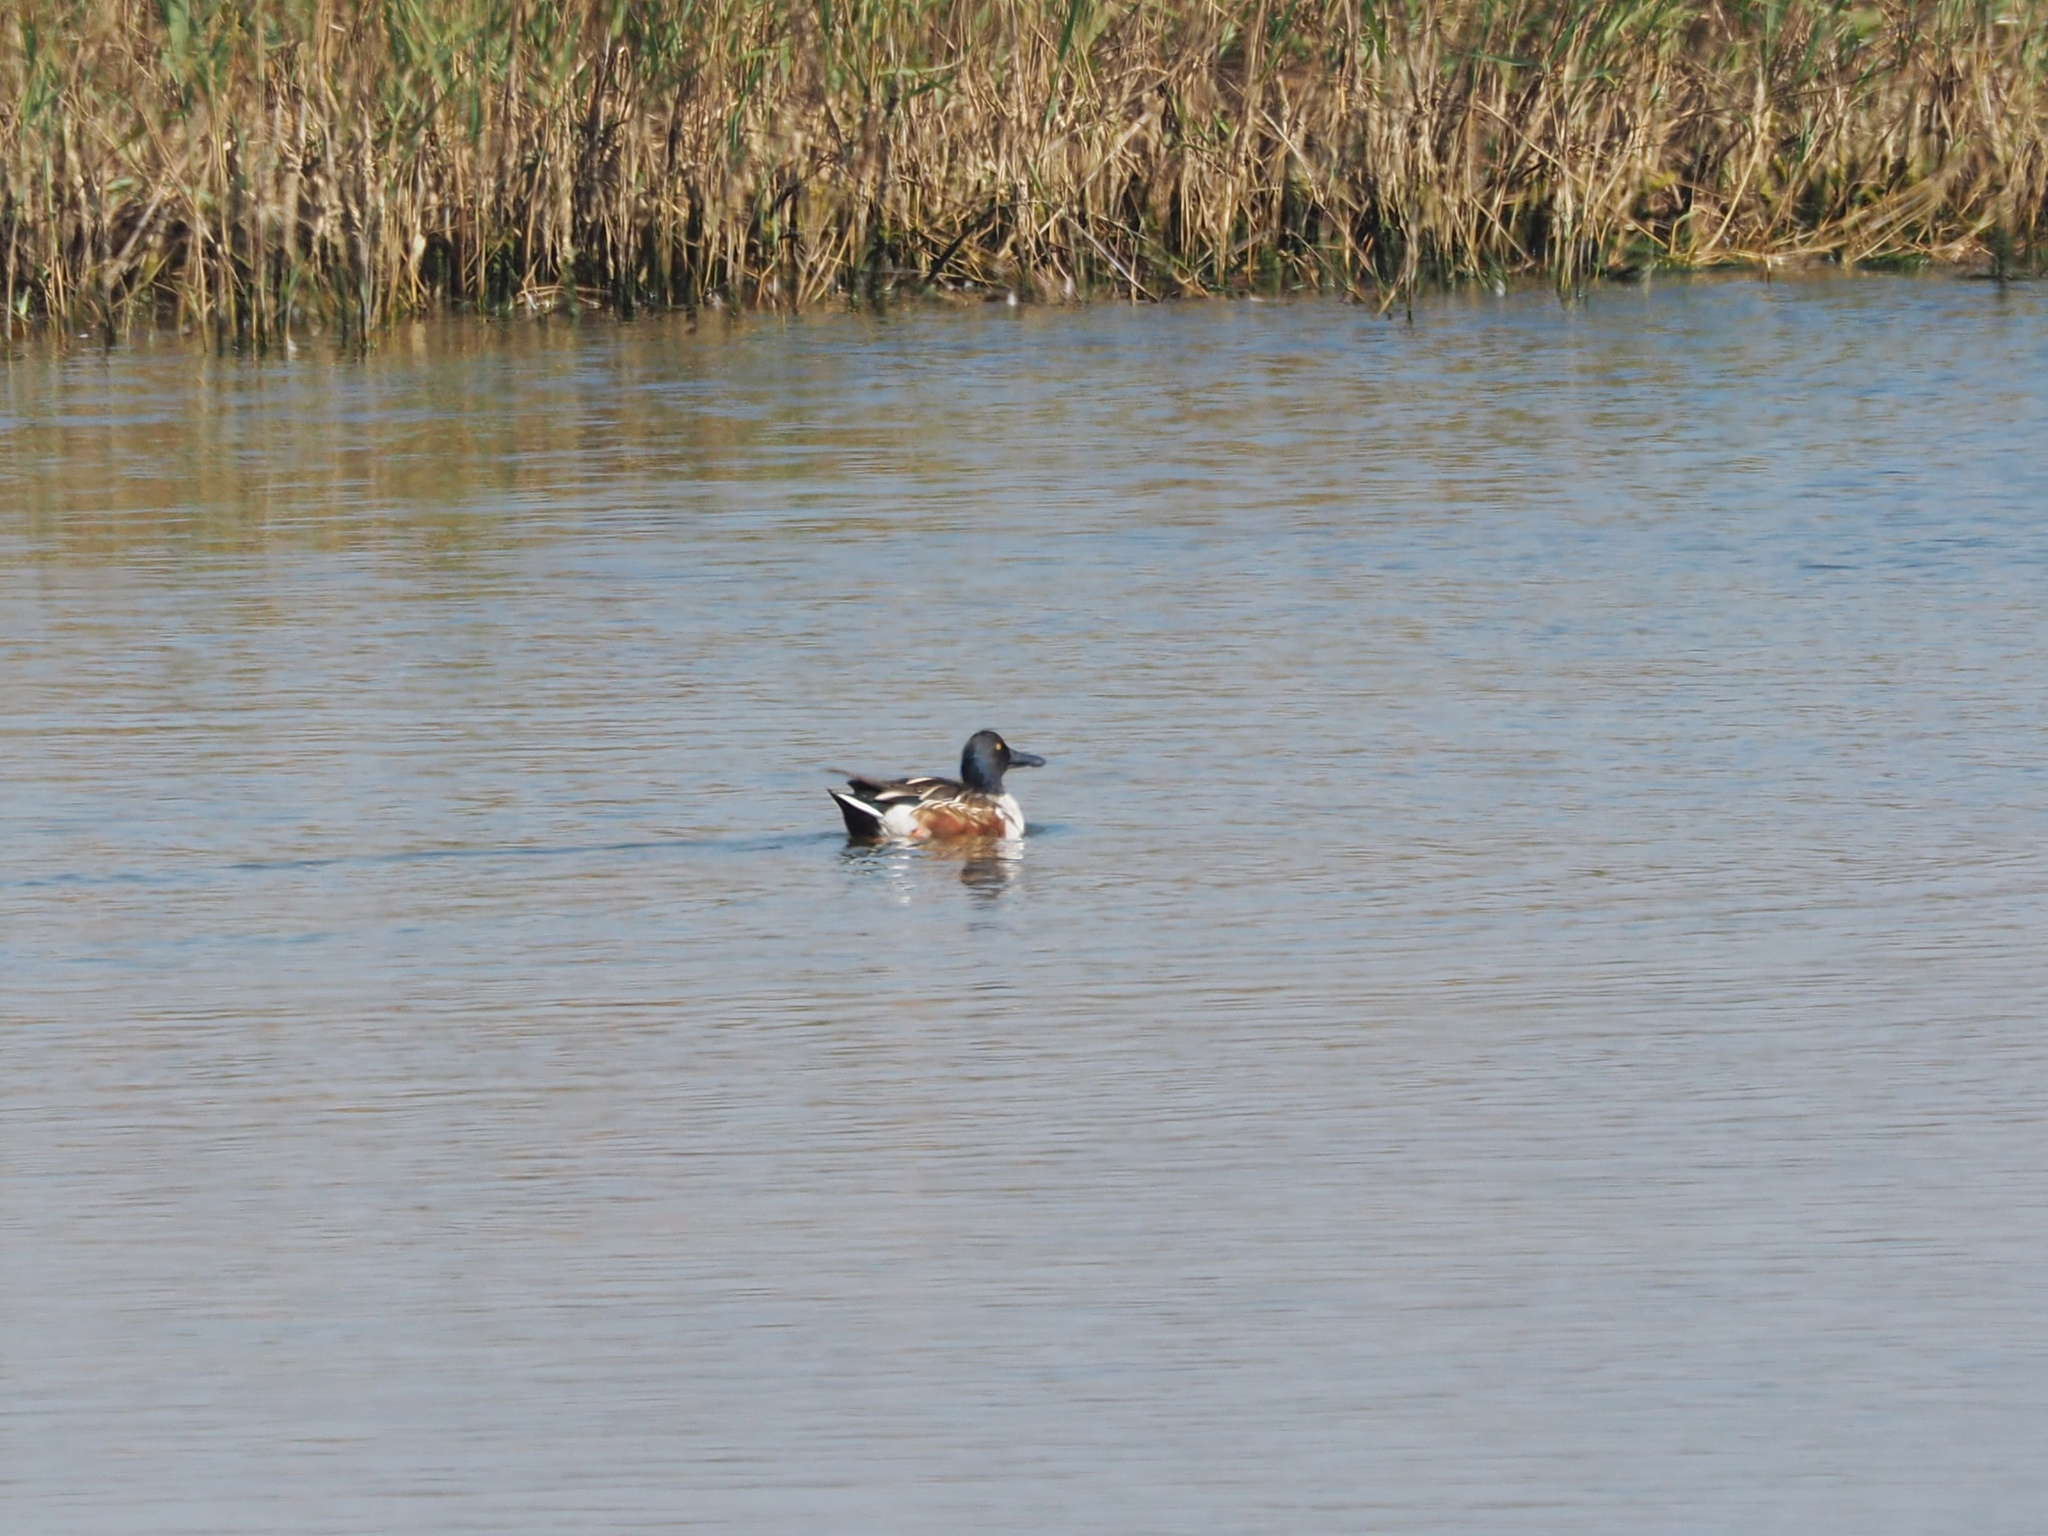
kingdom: Animalia
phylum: Chordata
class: Aves
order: Anseriformes
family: Anatidae
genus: Spatula
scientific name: Spatula clypeata
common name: Northern shoveler
